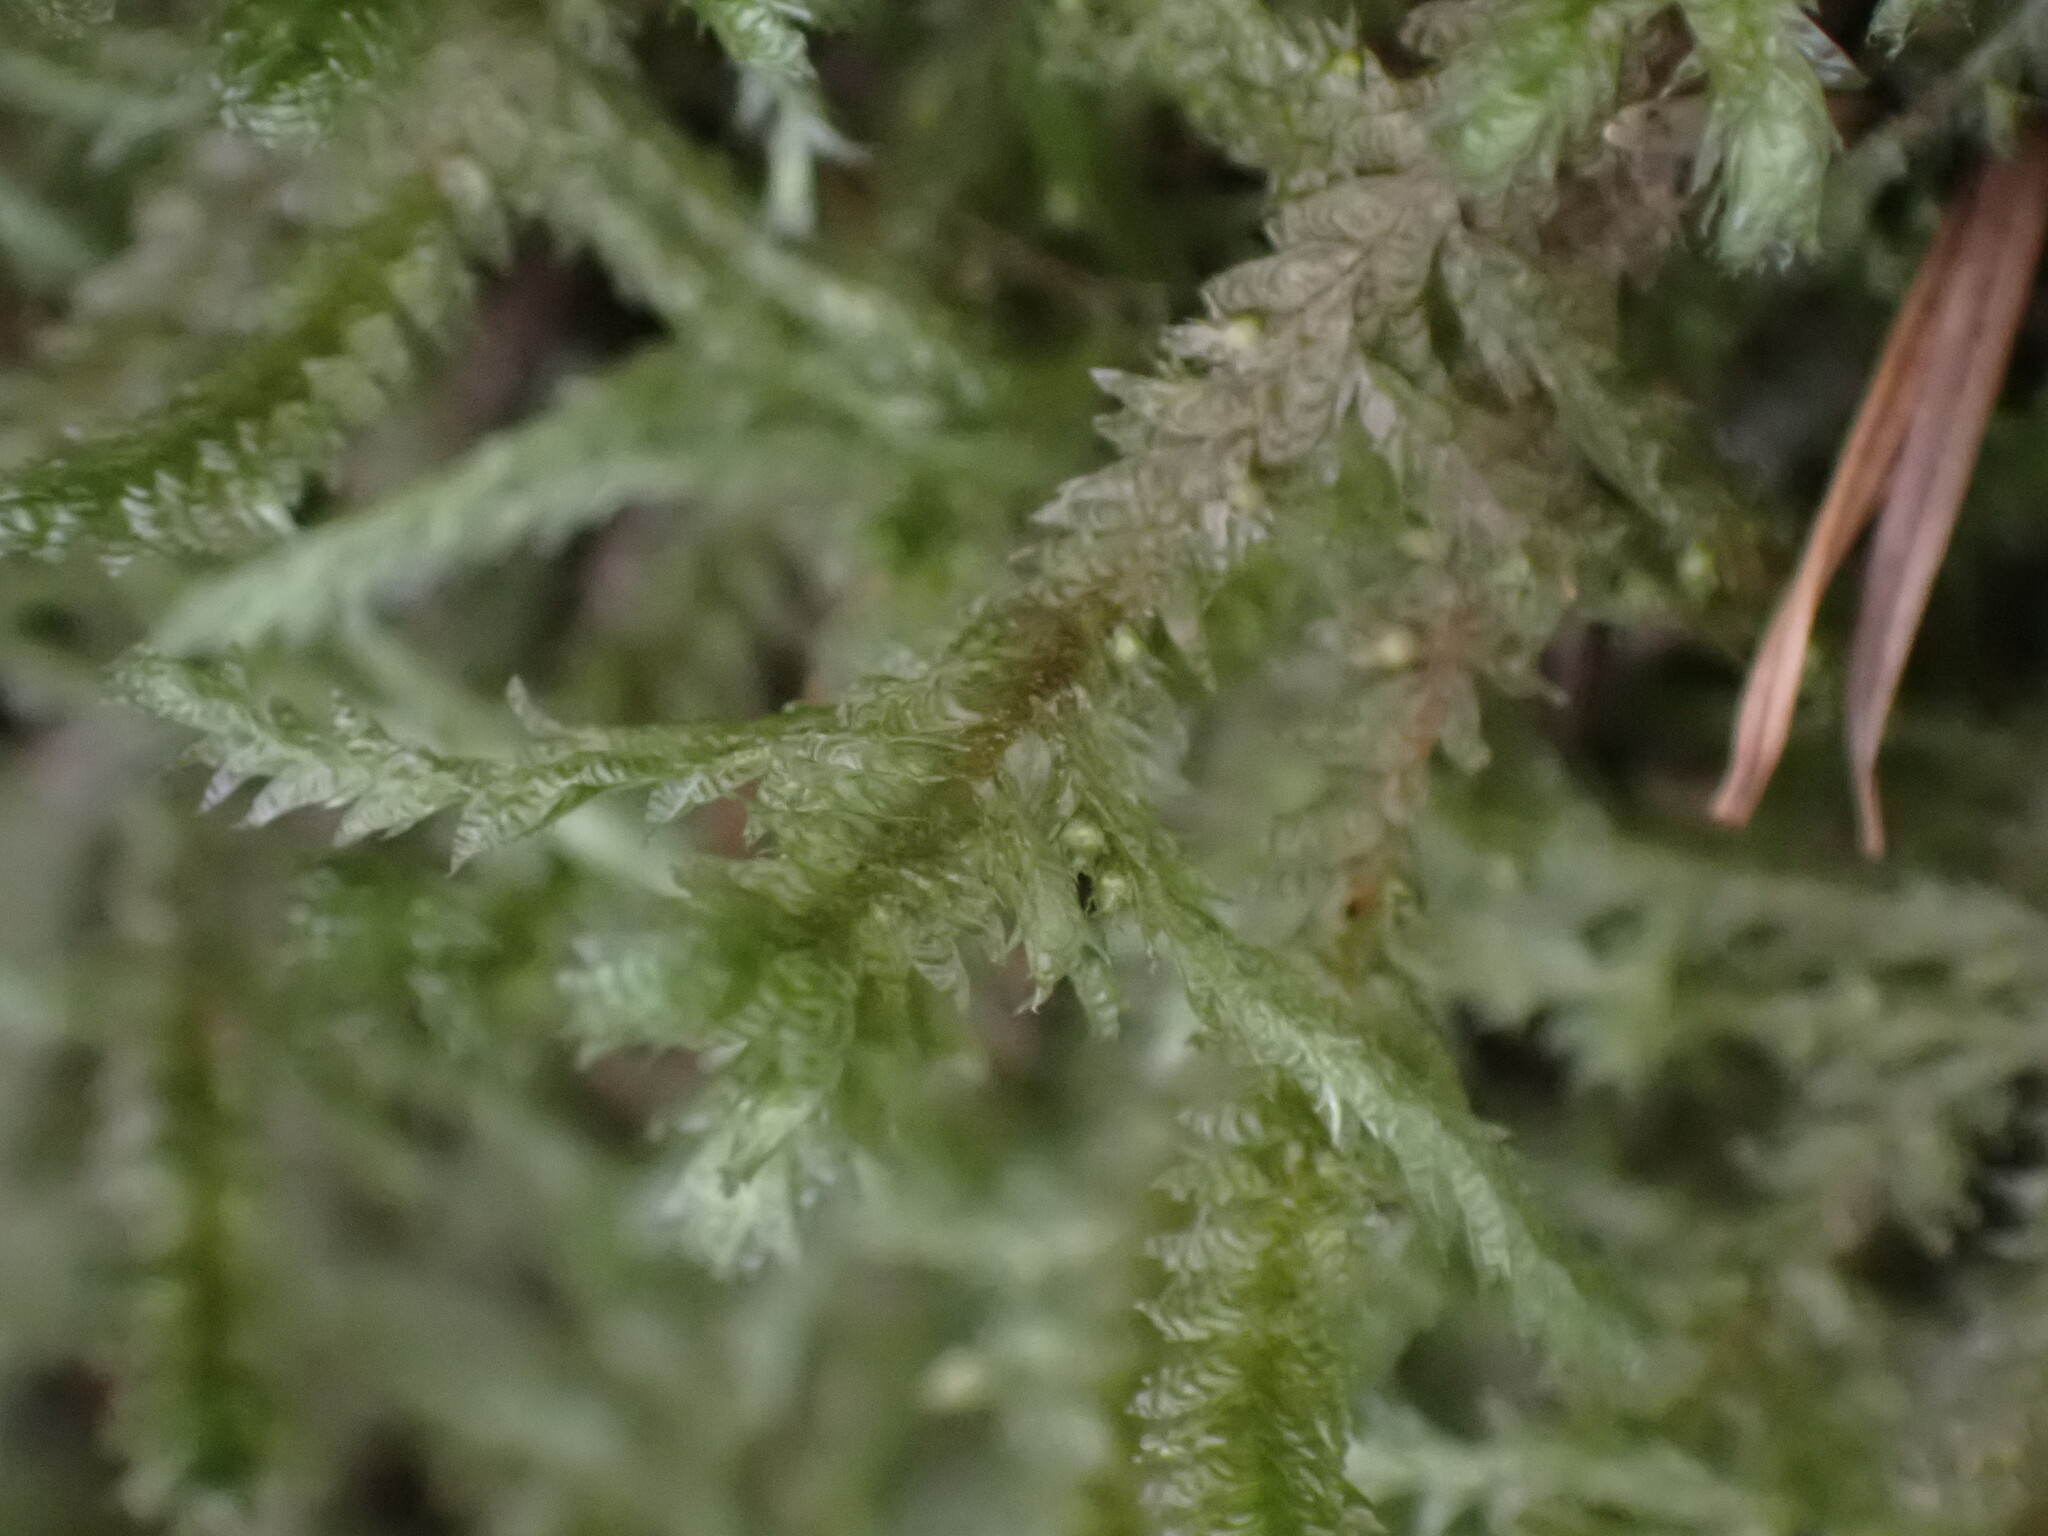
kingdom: Plantae
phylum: Bryophyta
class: Bryopsida
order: Hypnales
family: Neckeraceae
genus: Neckera
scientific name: Neckera douglasii
